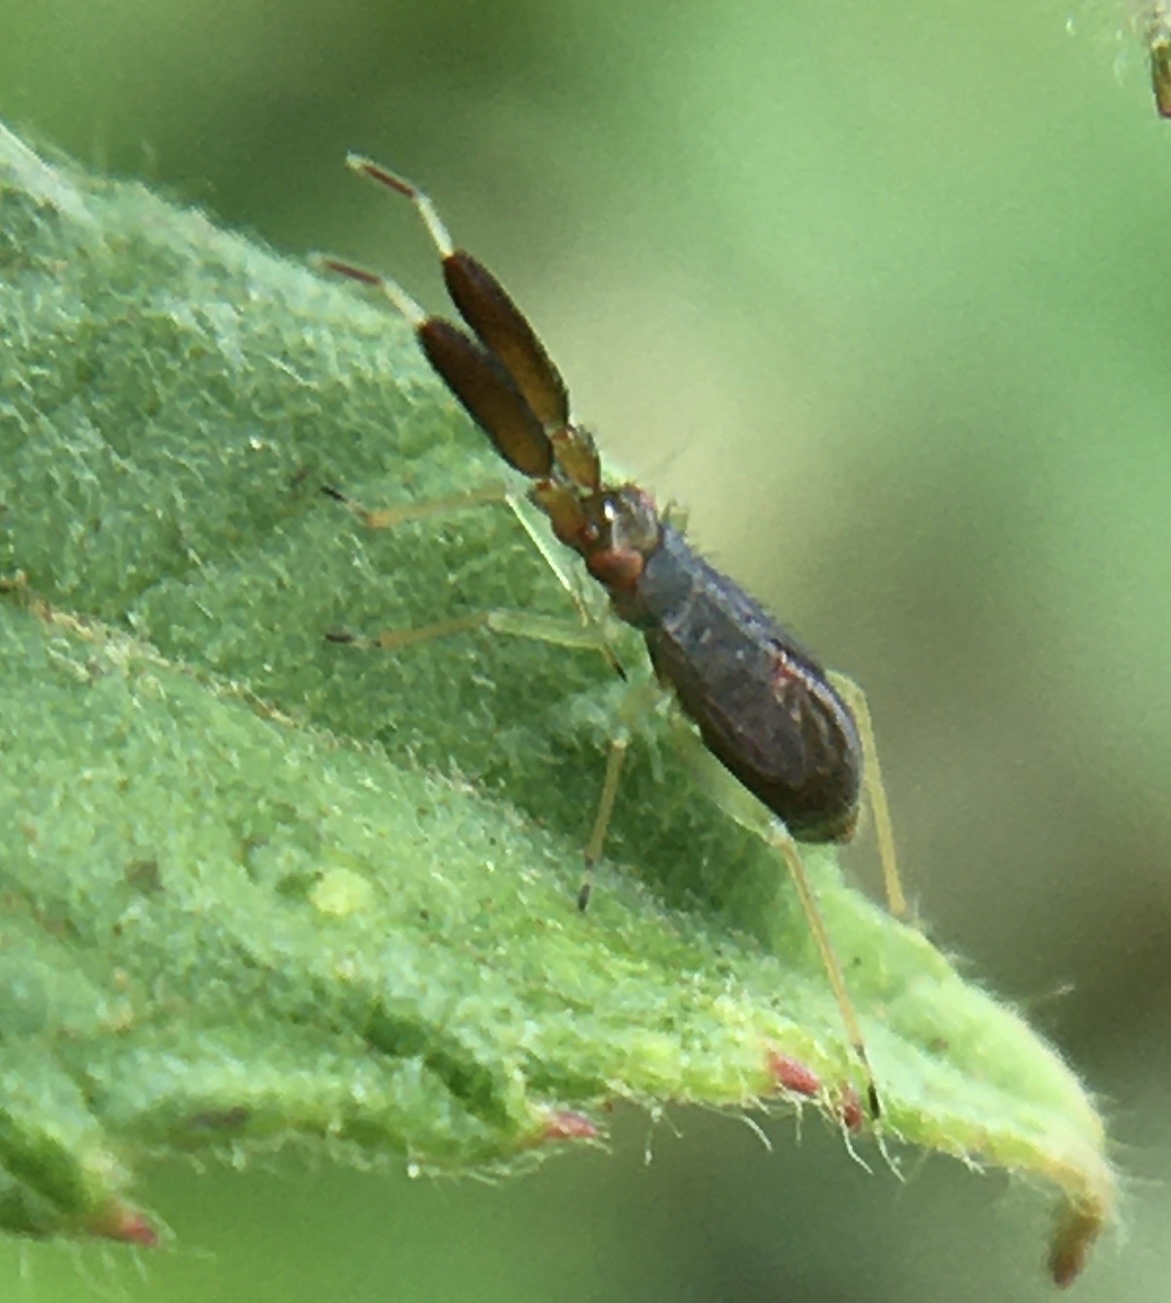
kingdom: Animalia
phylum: Arthropoda
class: Insecta
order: Hemiptera
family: Miridae
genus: Heterotoma
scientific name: Heterotoma planicornis
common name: Plant bug
